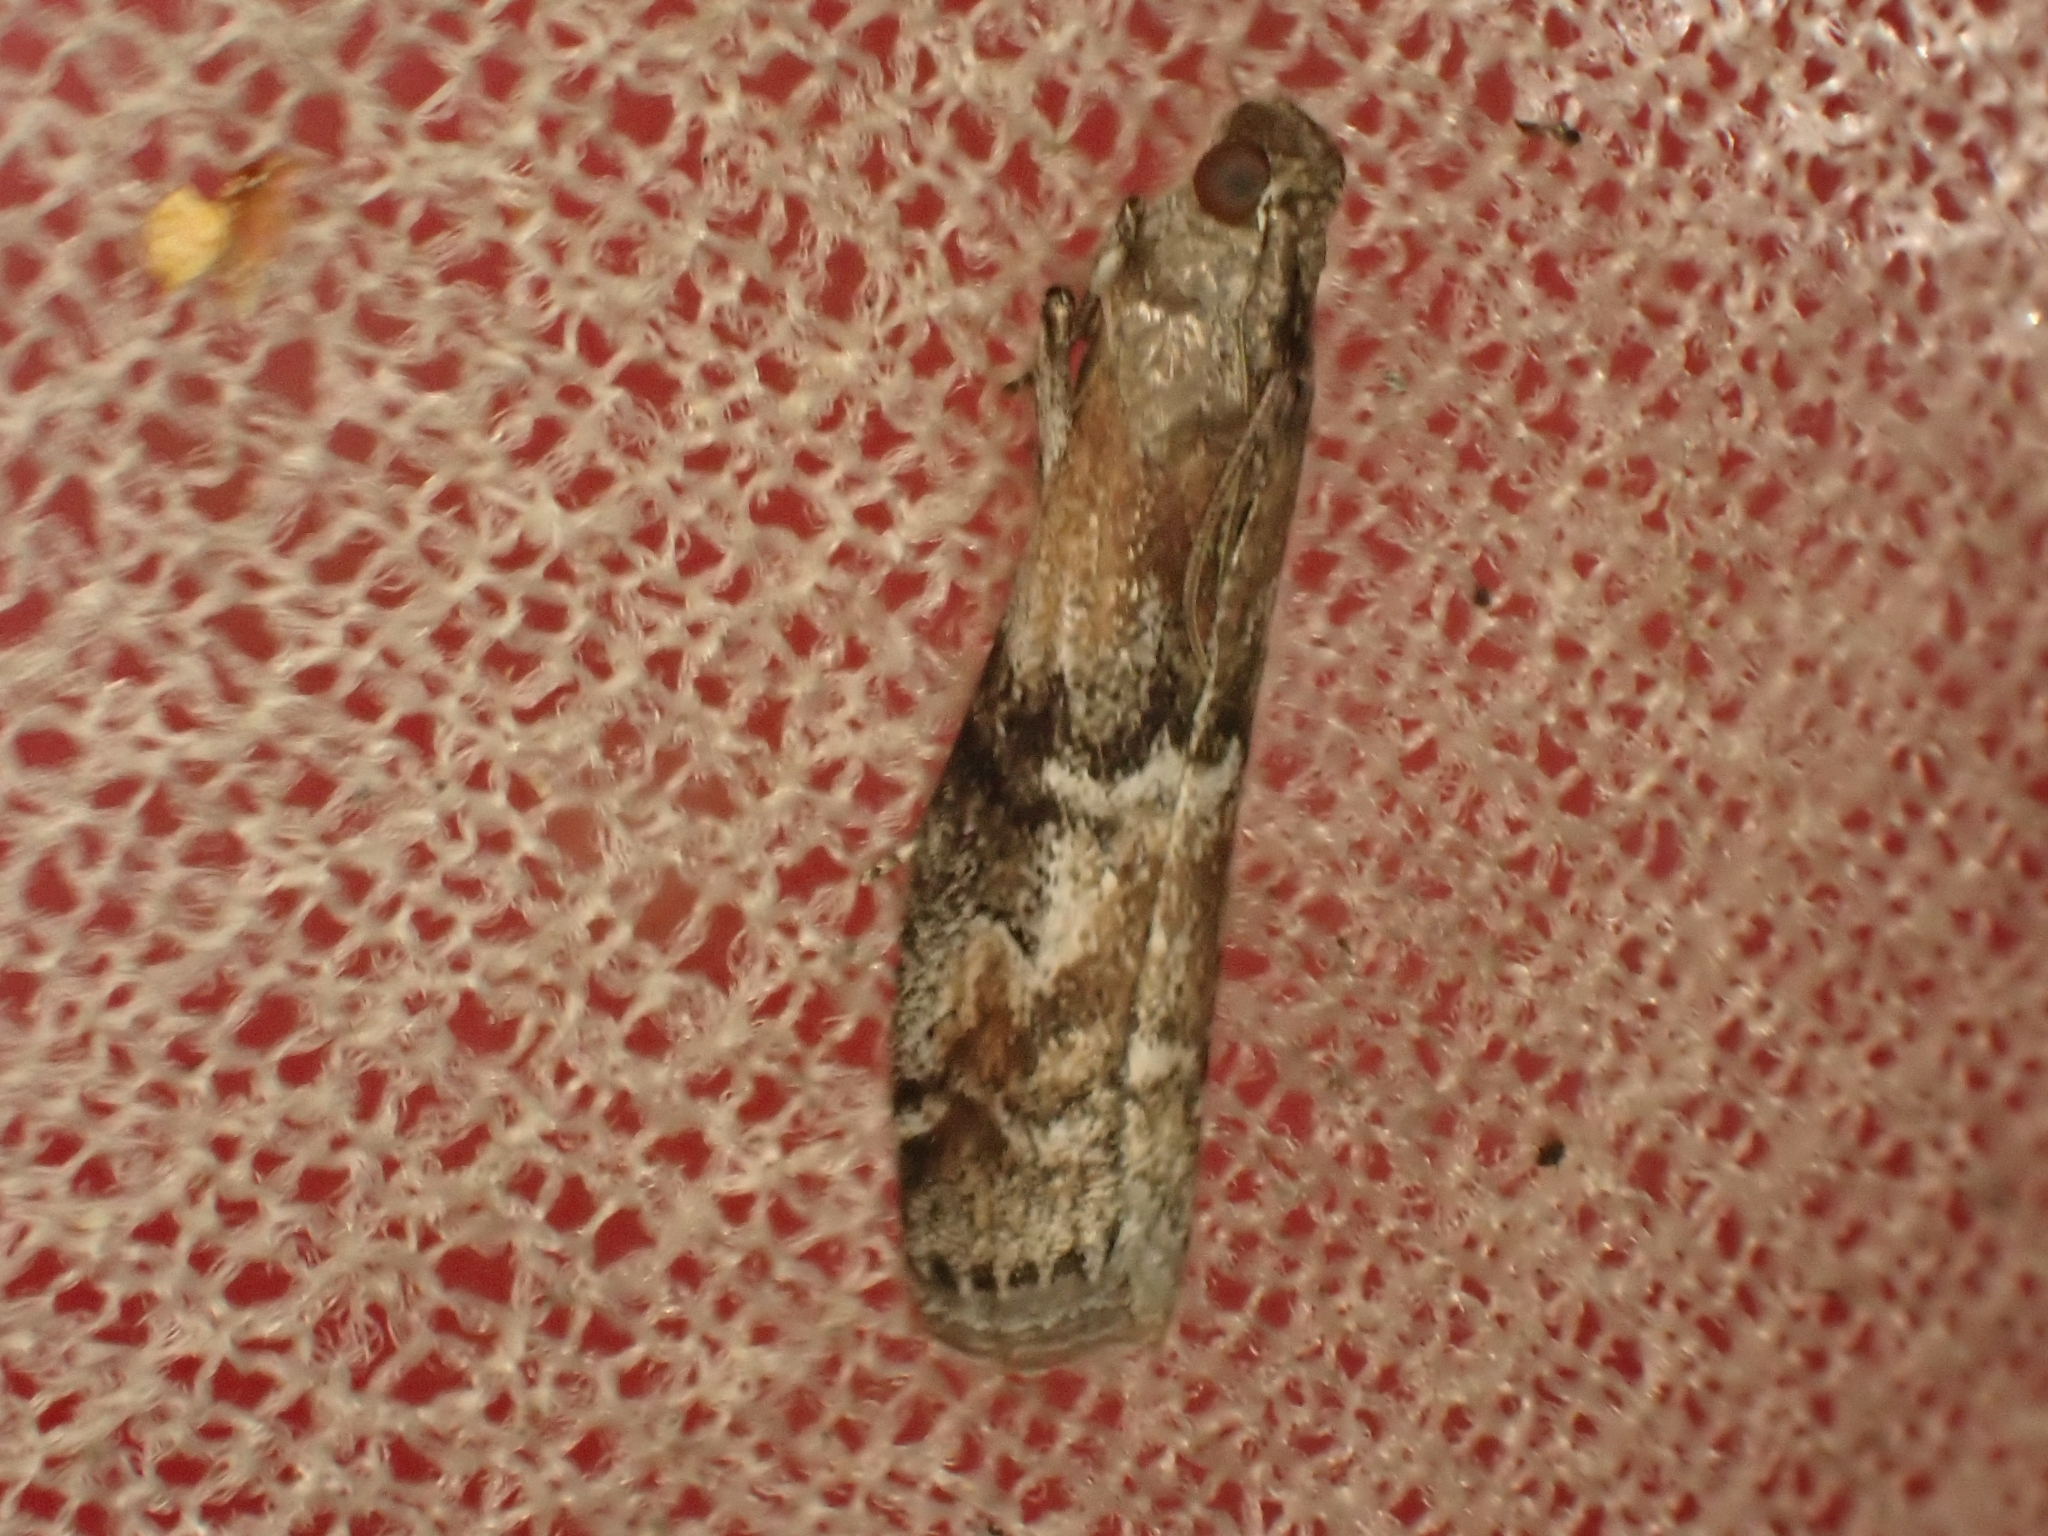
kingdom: Animalia
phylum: Arthropoda
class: Insecta
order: Lepidoptera
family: Pyralidae
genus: Rhodophaea
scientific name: Rhodophaea formosa
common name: Beautiful knot-horn
